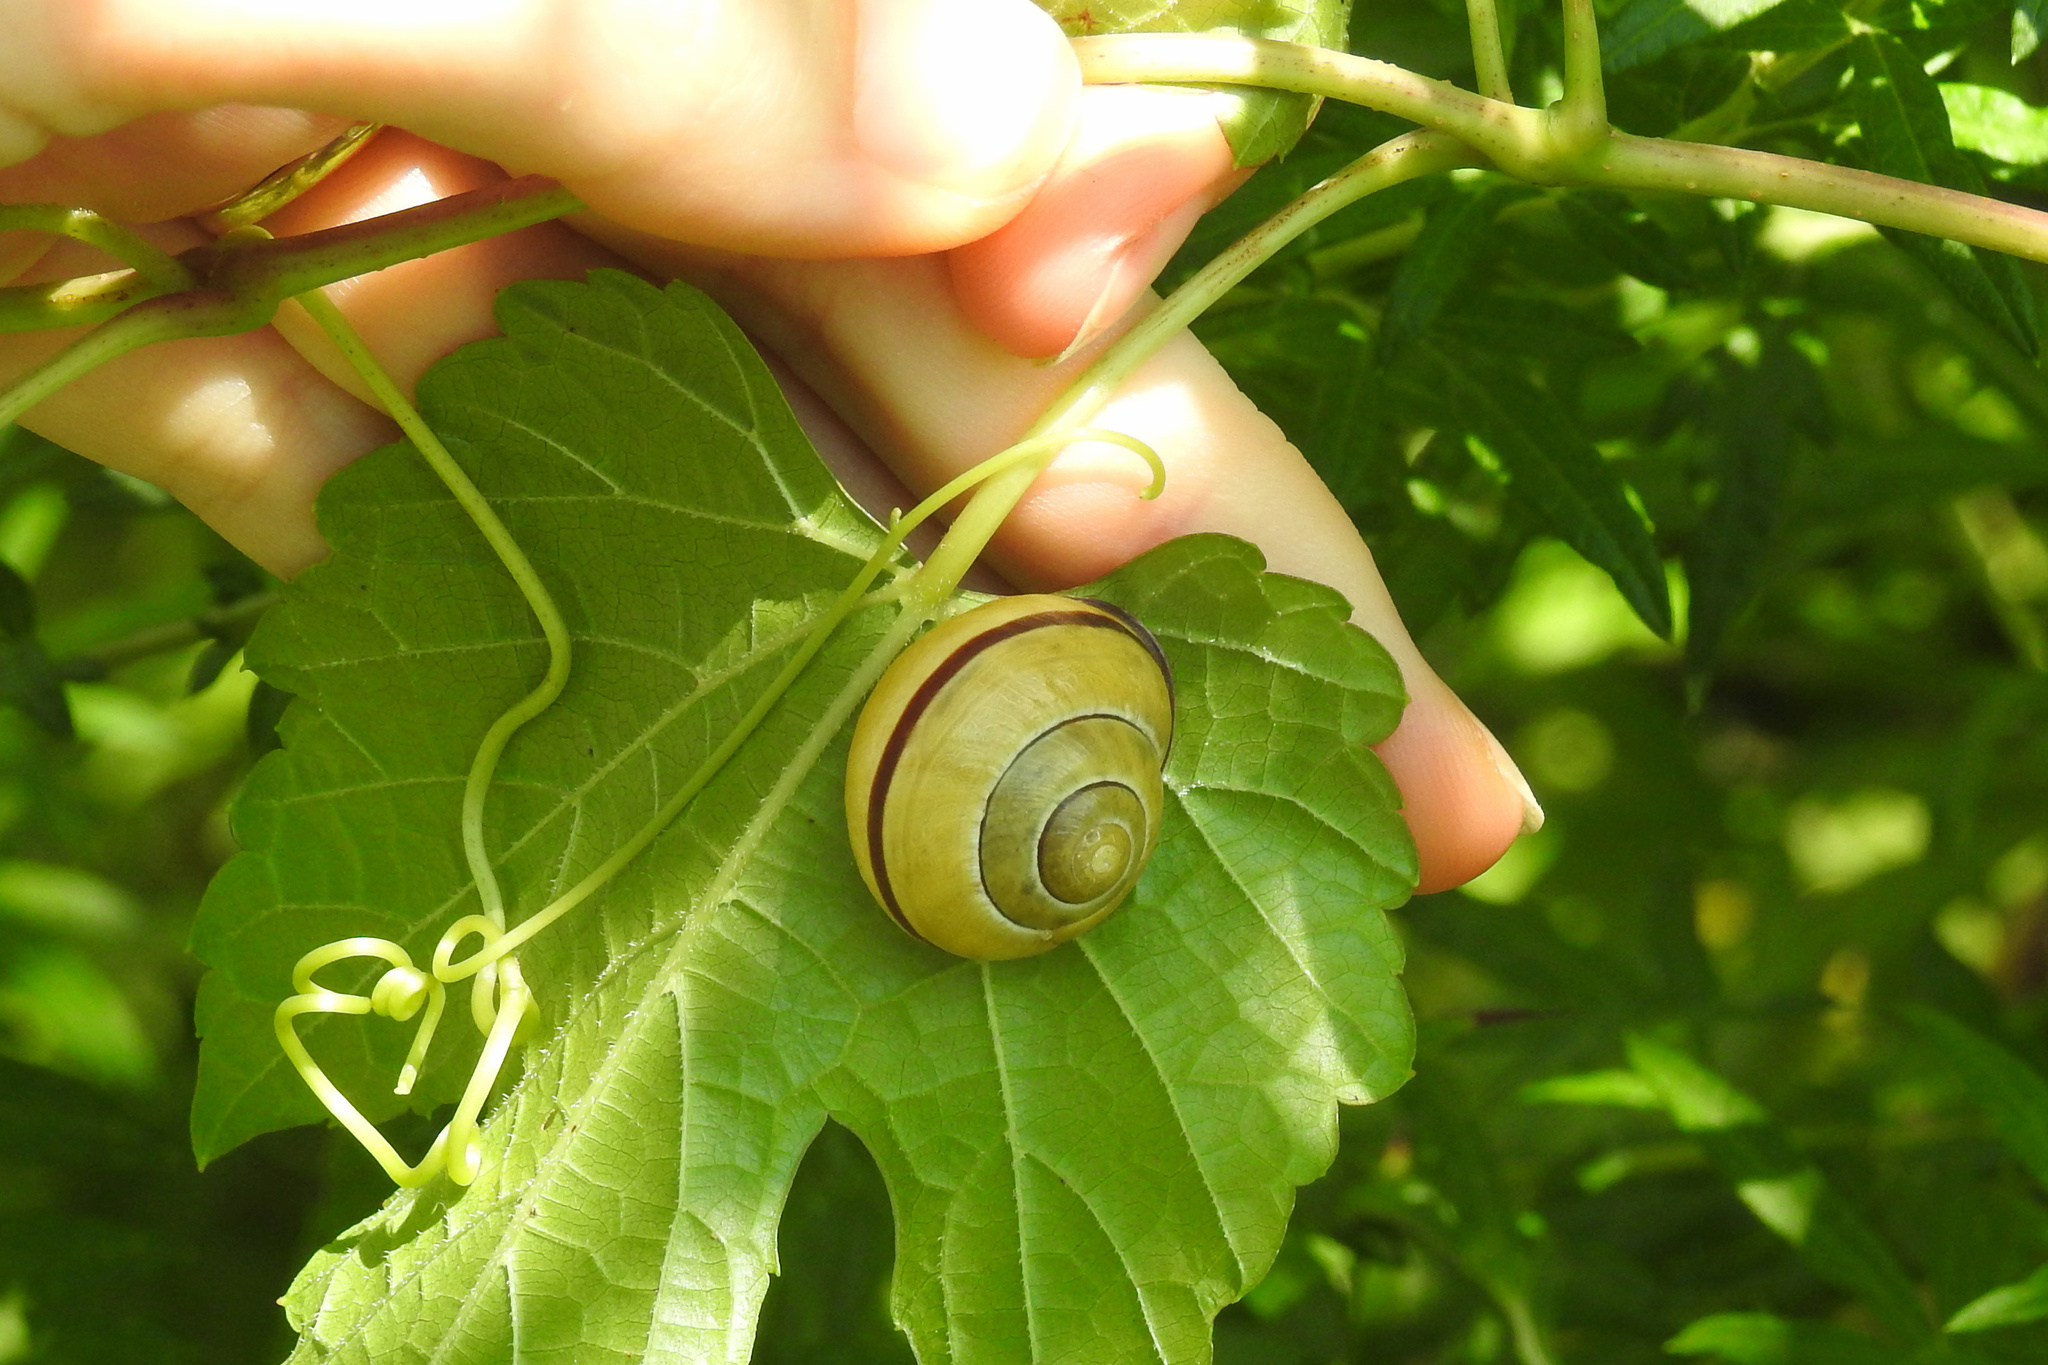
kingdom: Animalia
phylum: Mollusca
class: Gastropoda
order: Stylommatophora
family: Helicidae
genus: Cepaea
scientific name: Cepaea nemoralis
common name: Grovesnail
